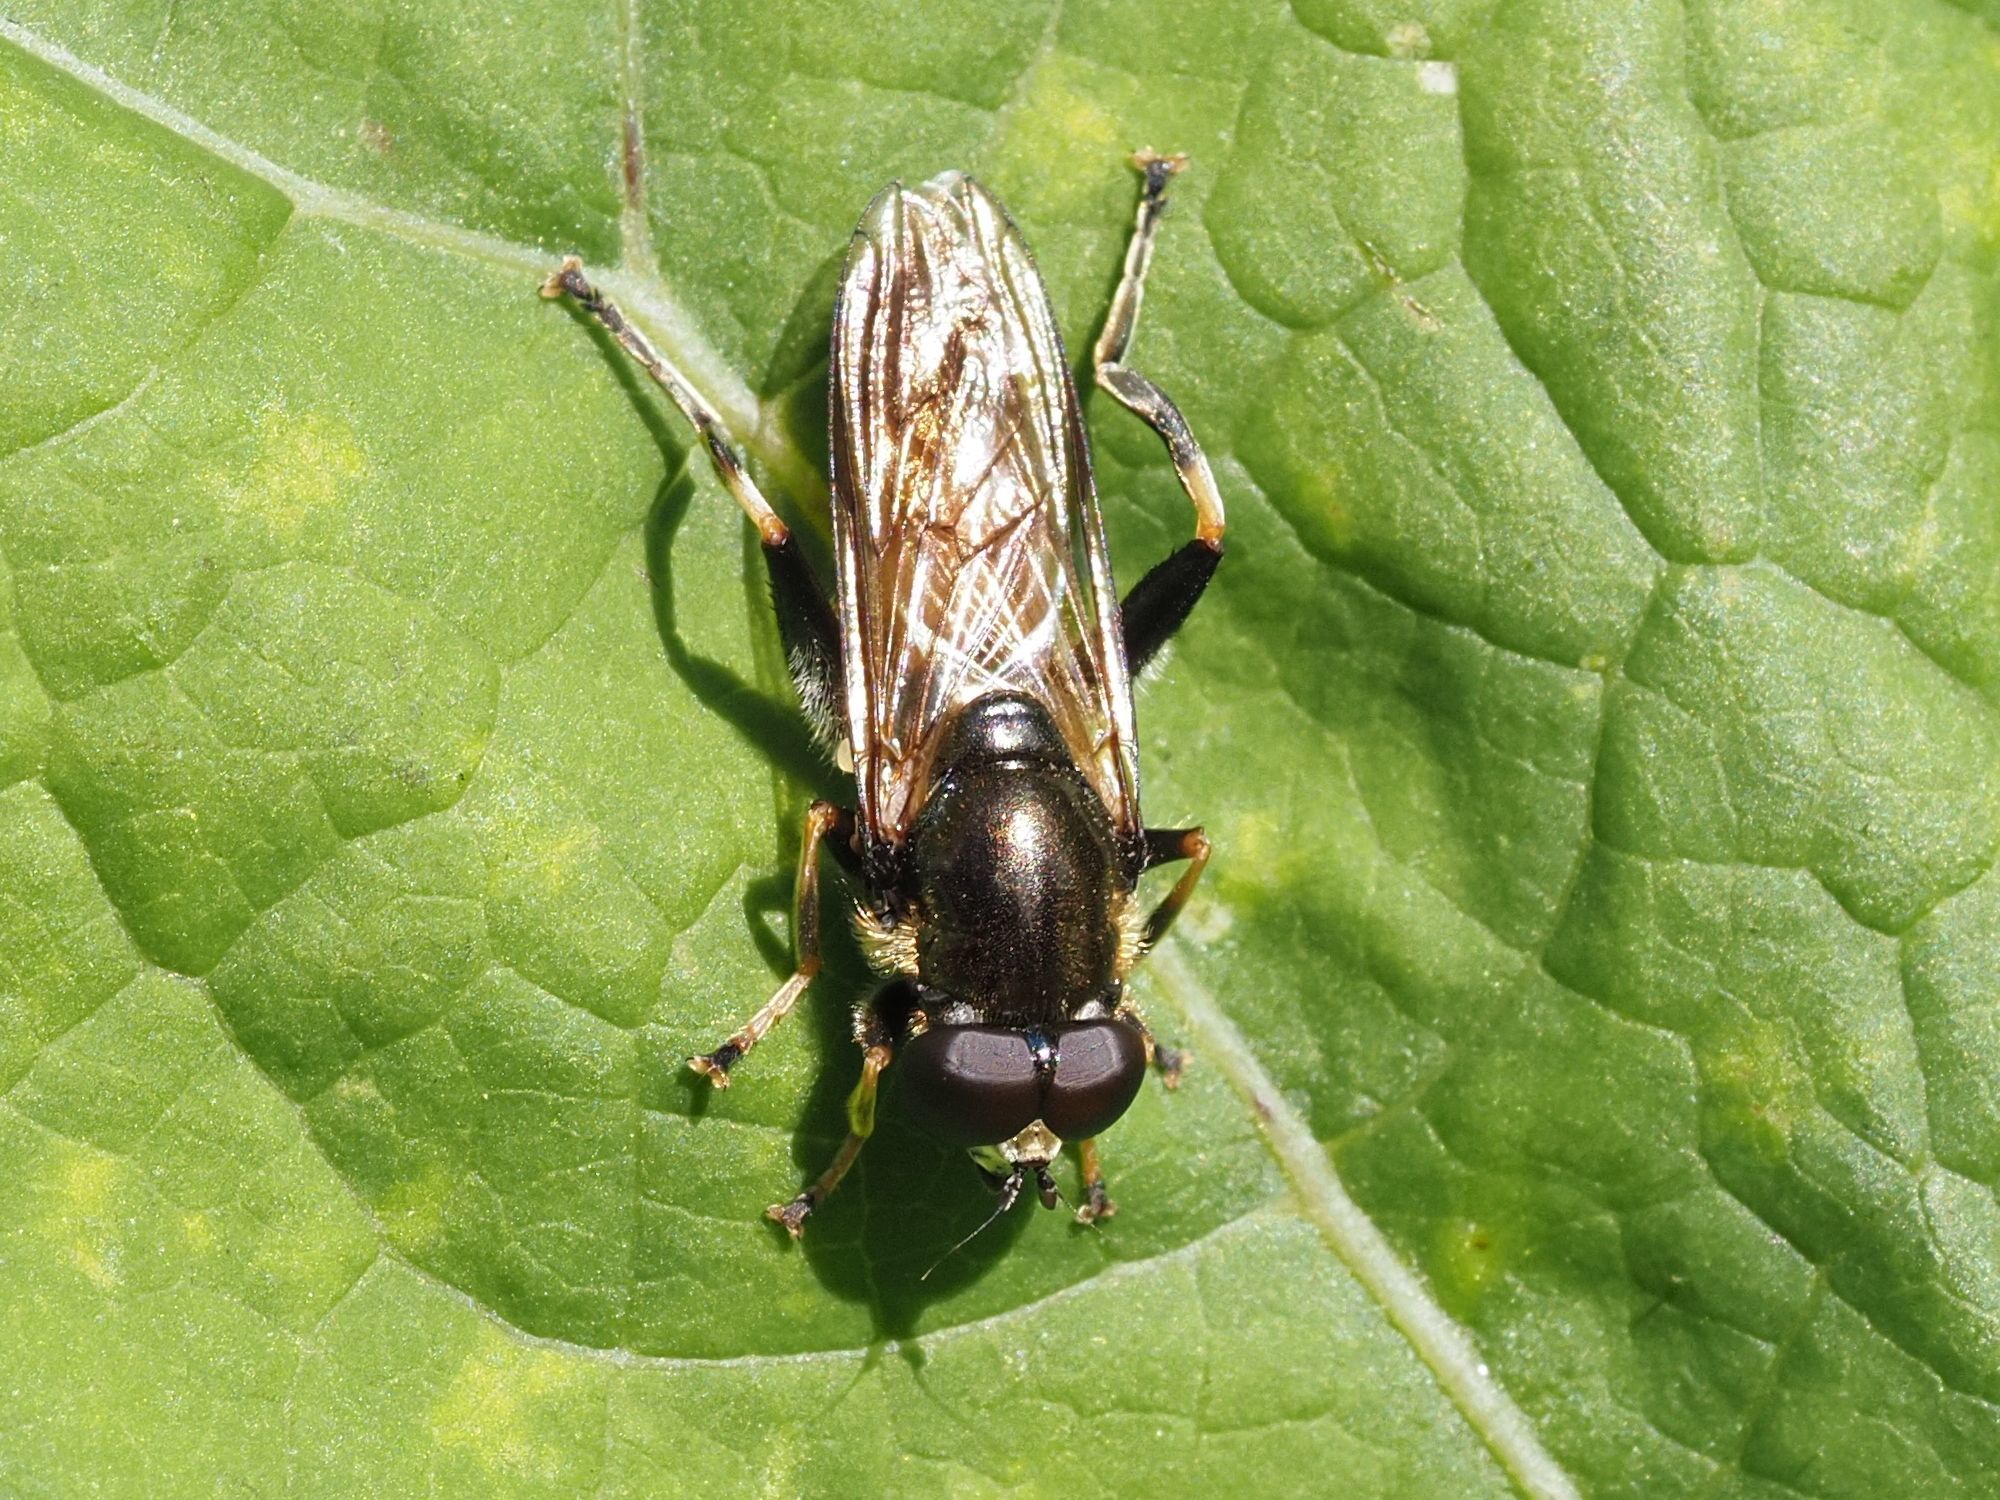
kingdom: Animalia
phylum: Arthropoda
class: Insecta
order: Diptera
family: Syrphidae
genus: Xylota
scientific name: Xylota segnis
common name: Brown-toed forest fly
